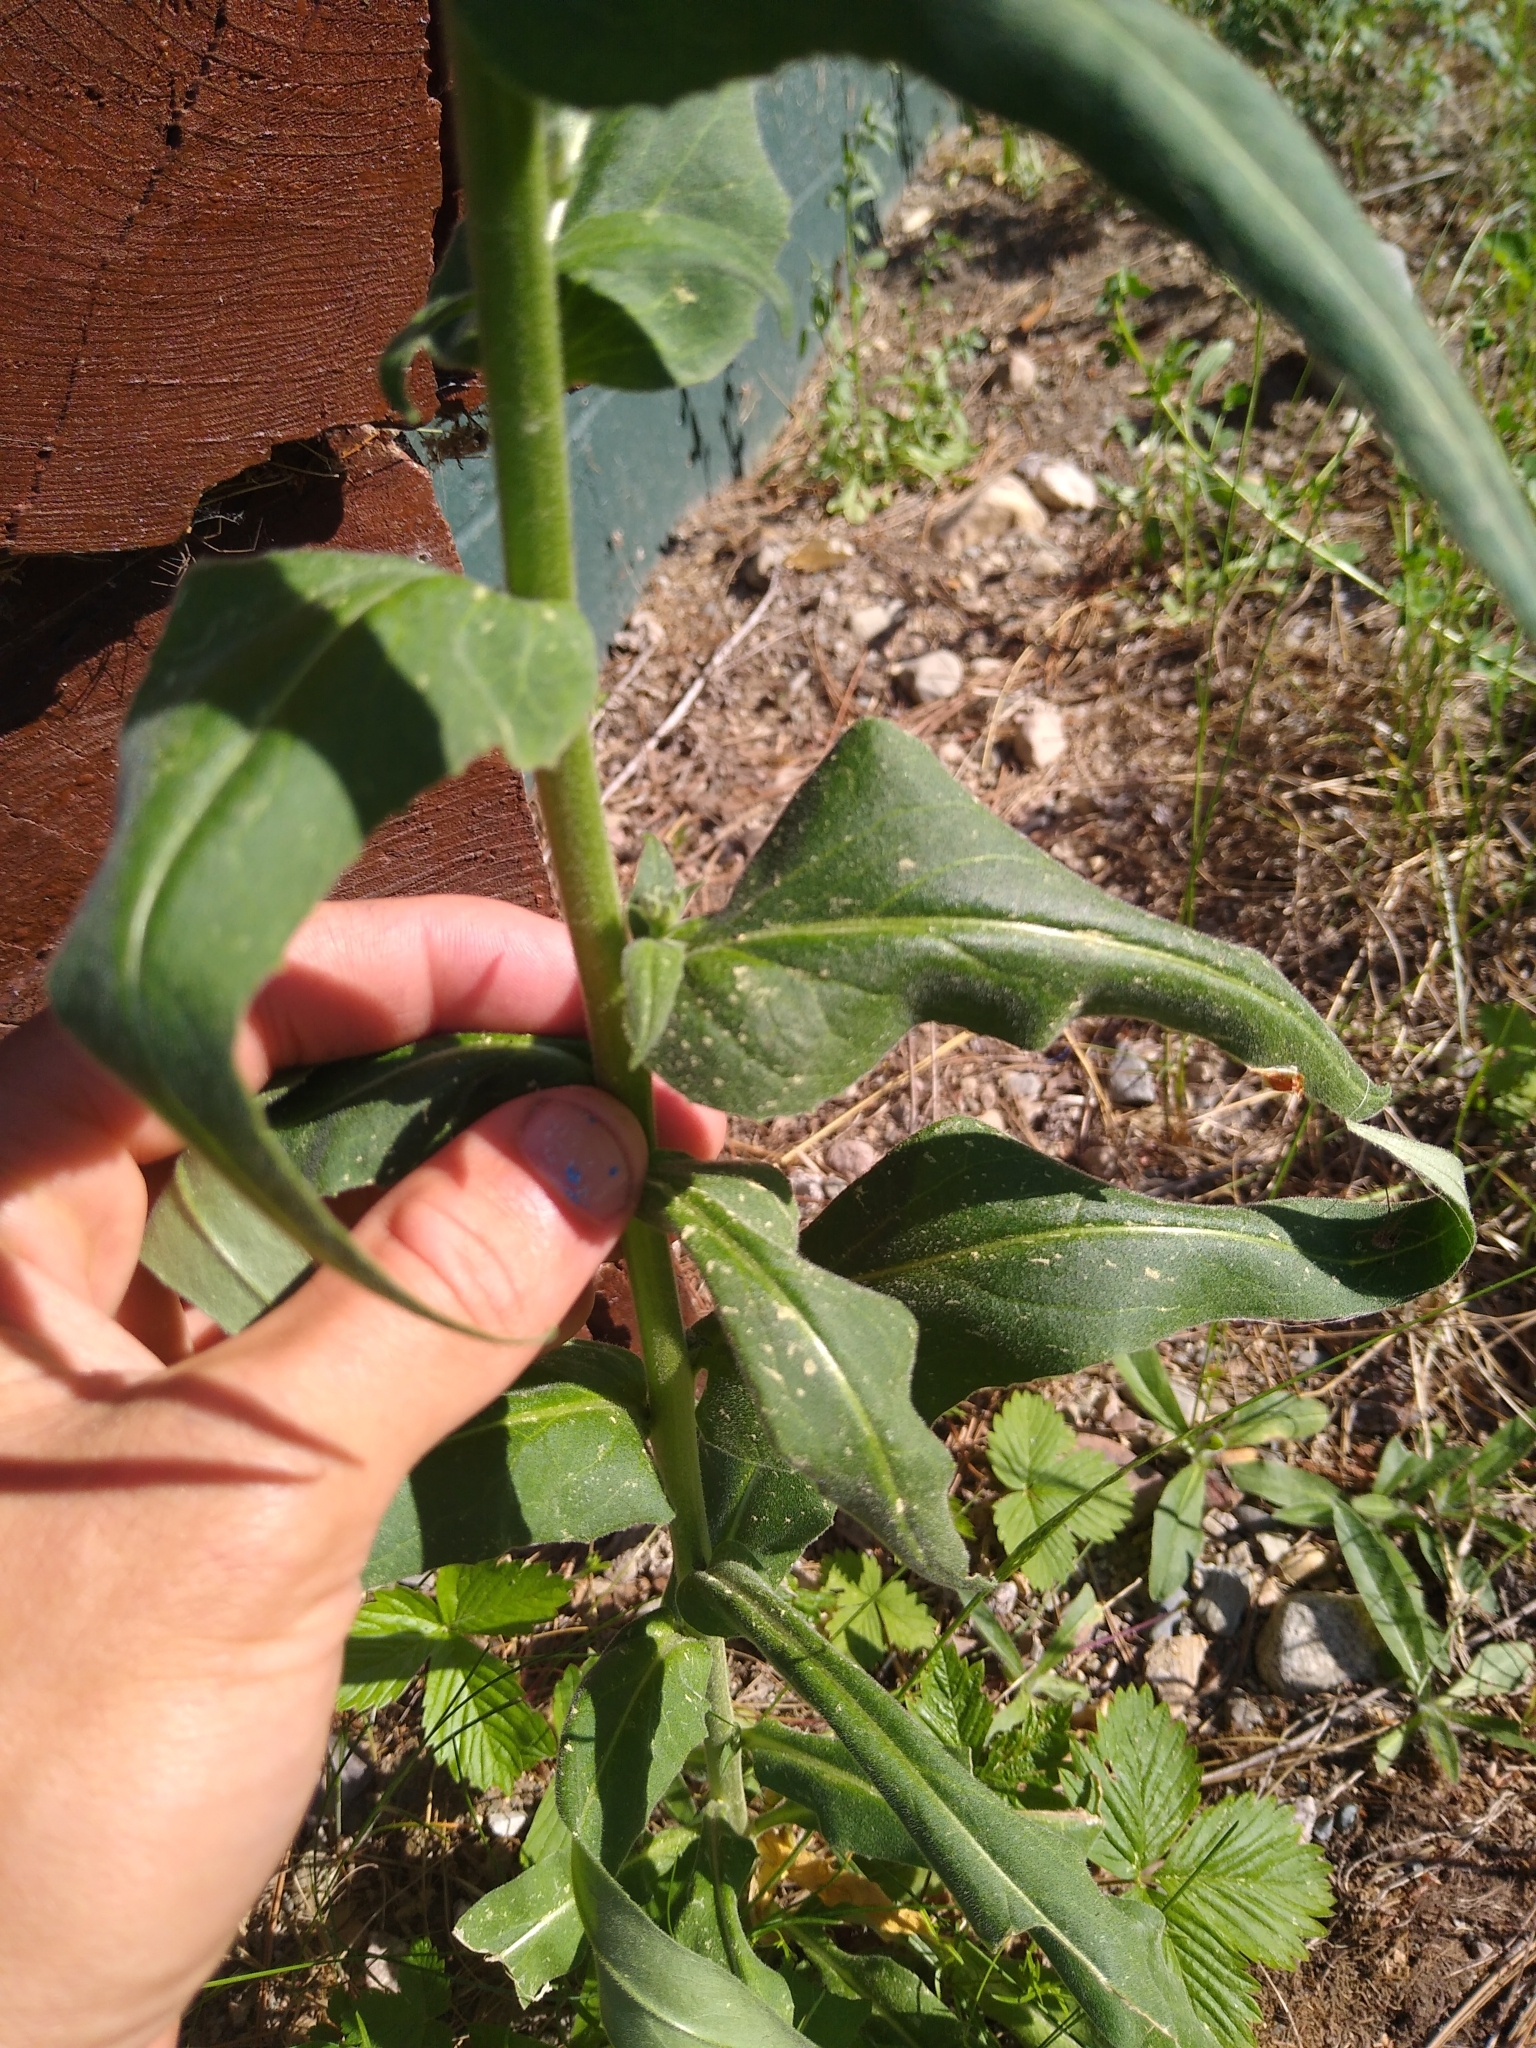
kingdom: Plantae
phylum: Tracheophyta
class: Magnoliopsida
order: Brassicales
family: Brassicaceae
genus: Hesperis
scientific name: Hesperis matronalis
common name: Dame's-violet
